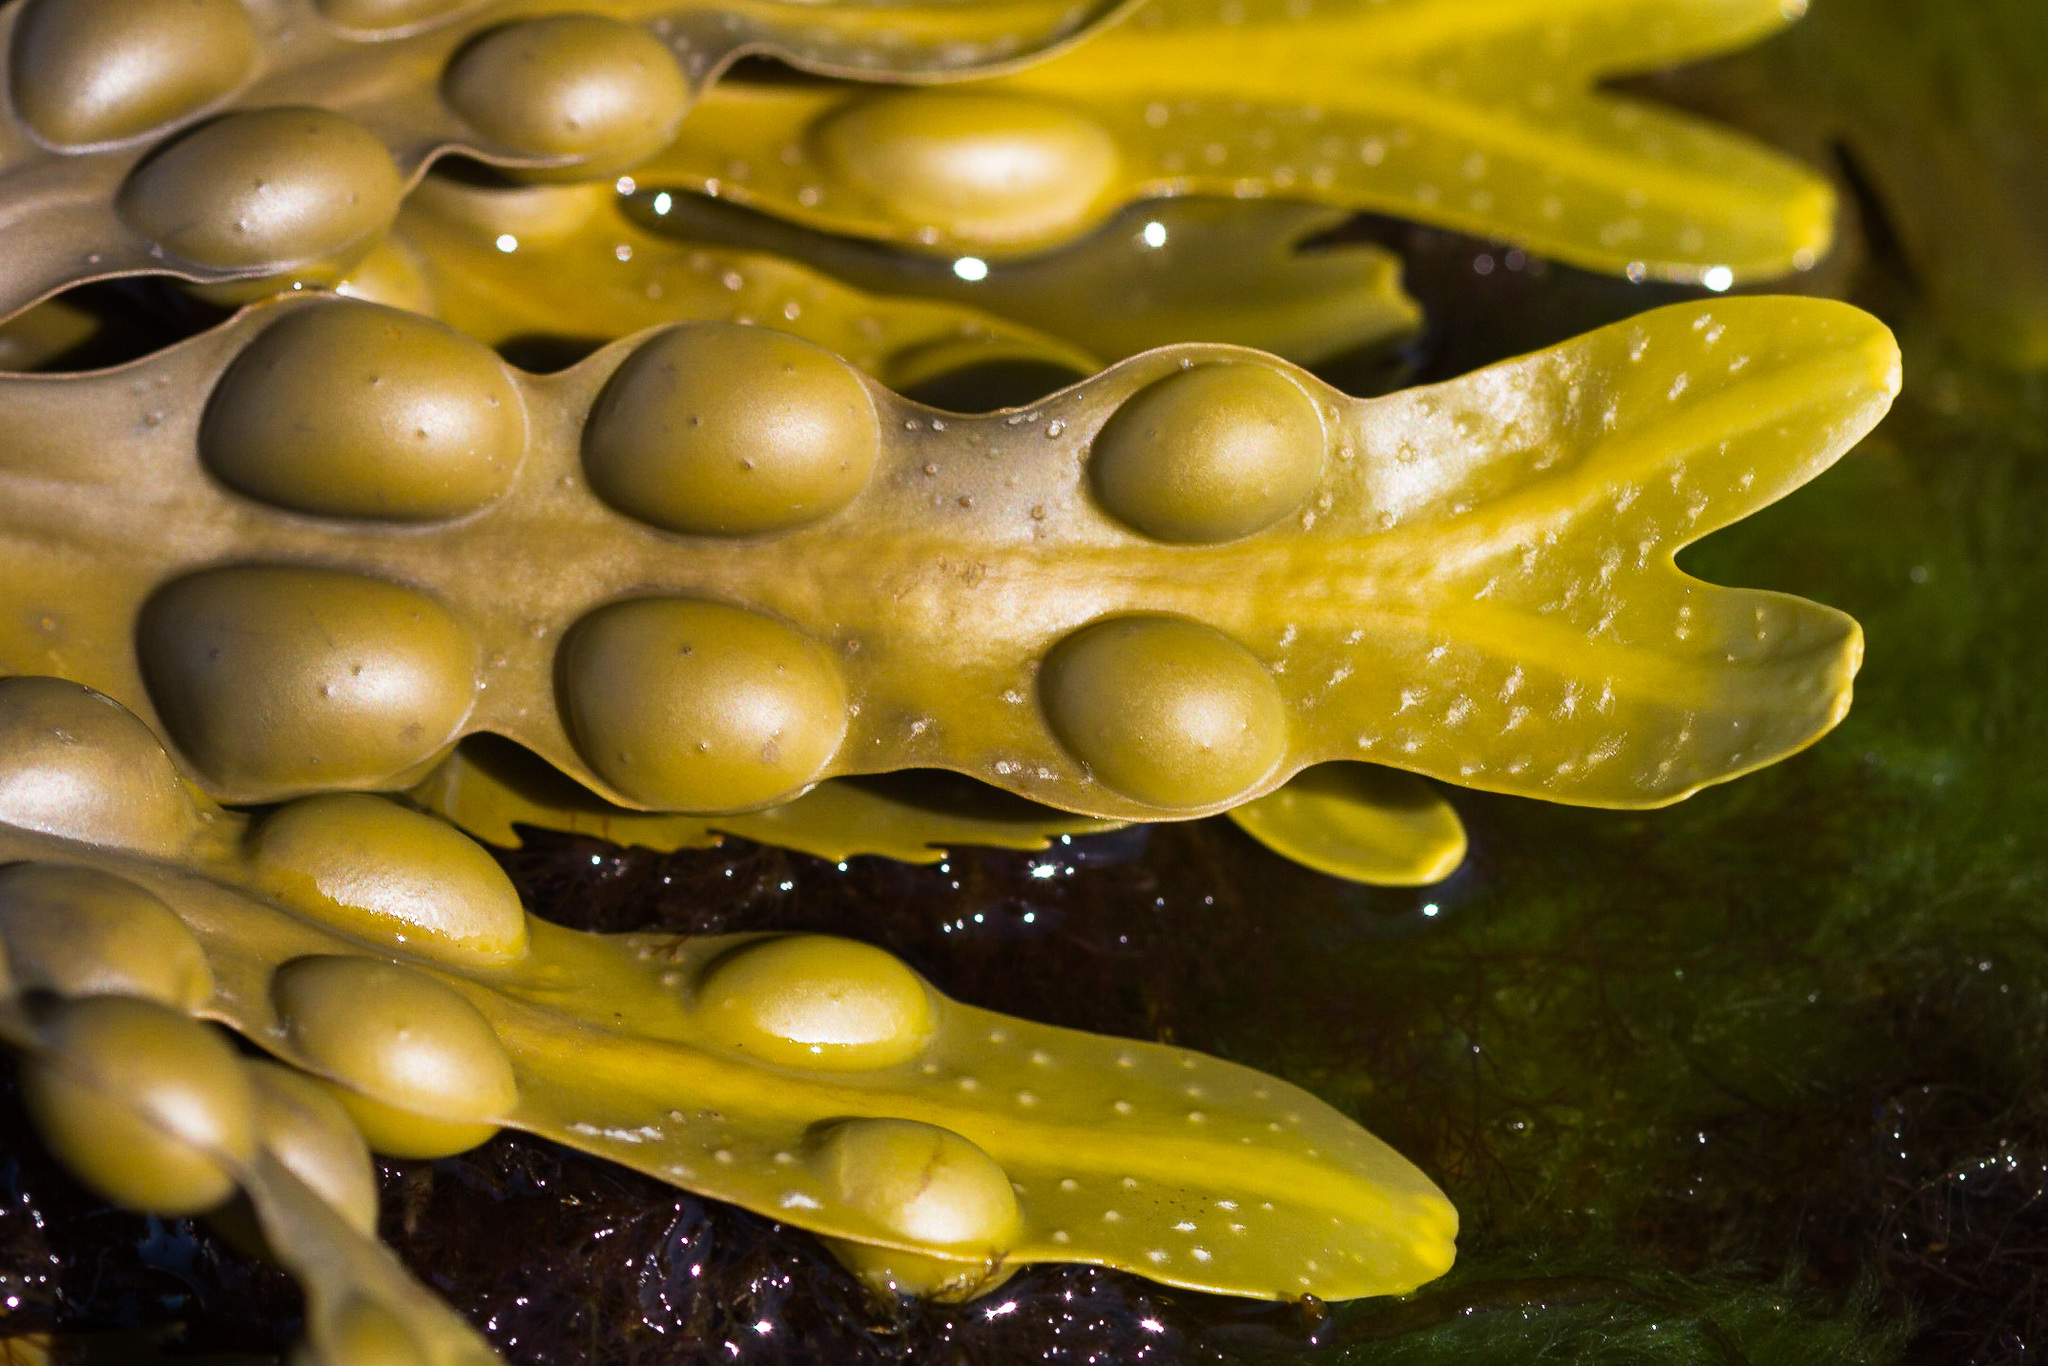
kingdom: Chromista
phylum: Ochrophyta
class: Phaeophyceae
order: Fucales
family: Fucaceae
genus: Fucus
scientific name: Fucus vesiculosus
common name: Bladder wrack
